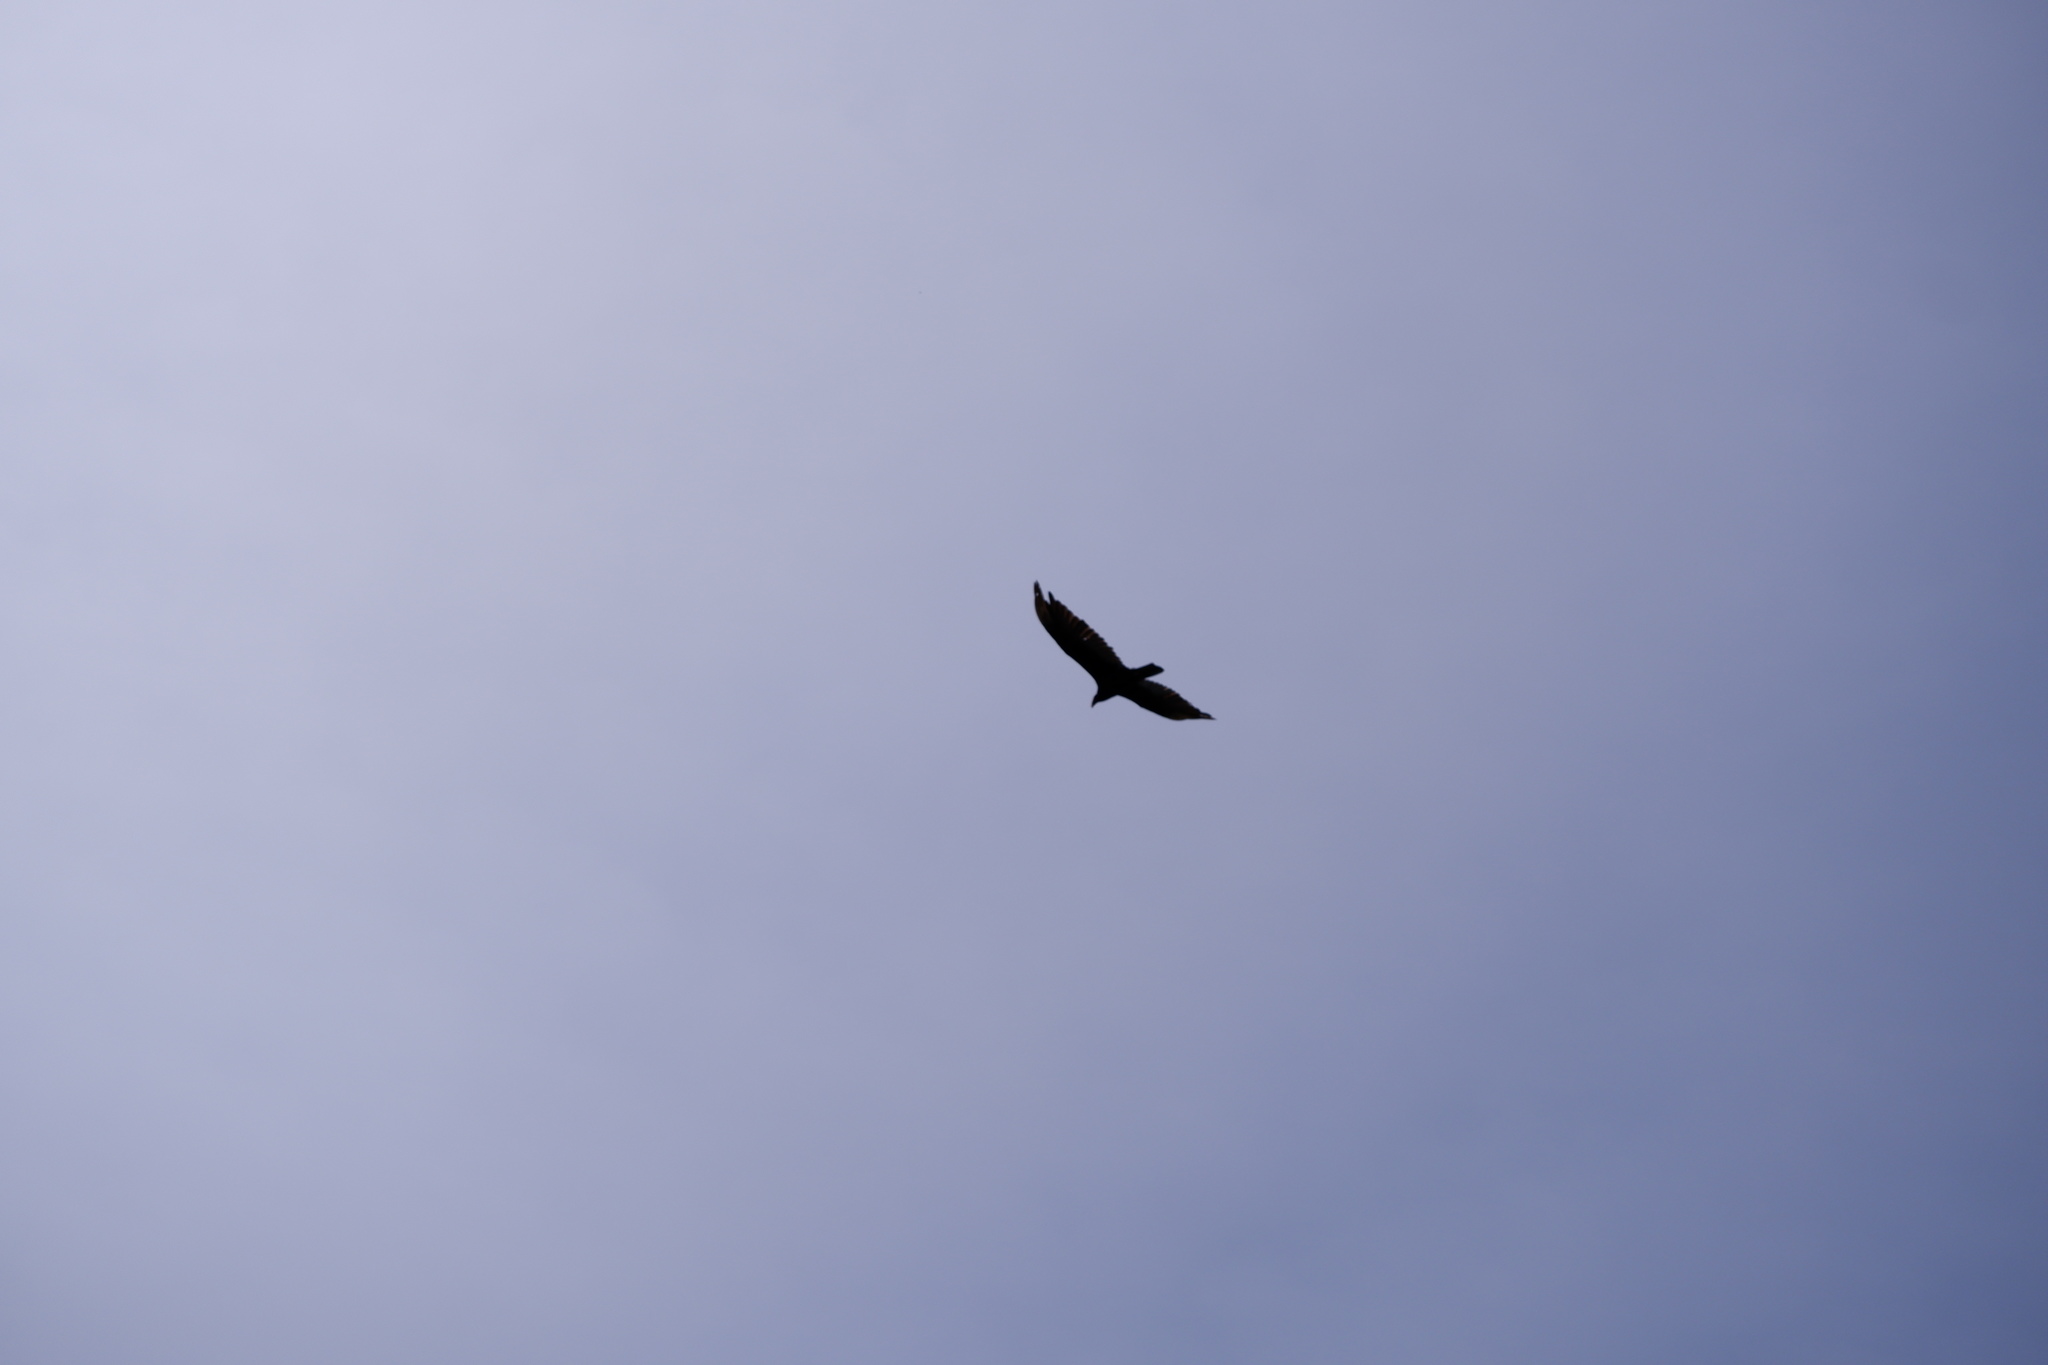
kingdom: Animalia
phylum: Chordata
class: Aves
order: Accipitriformes
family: Cathartidae
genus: Cathartes
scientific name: Cathartes aura
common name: Turkey vulture
